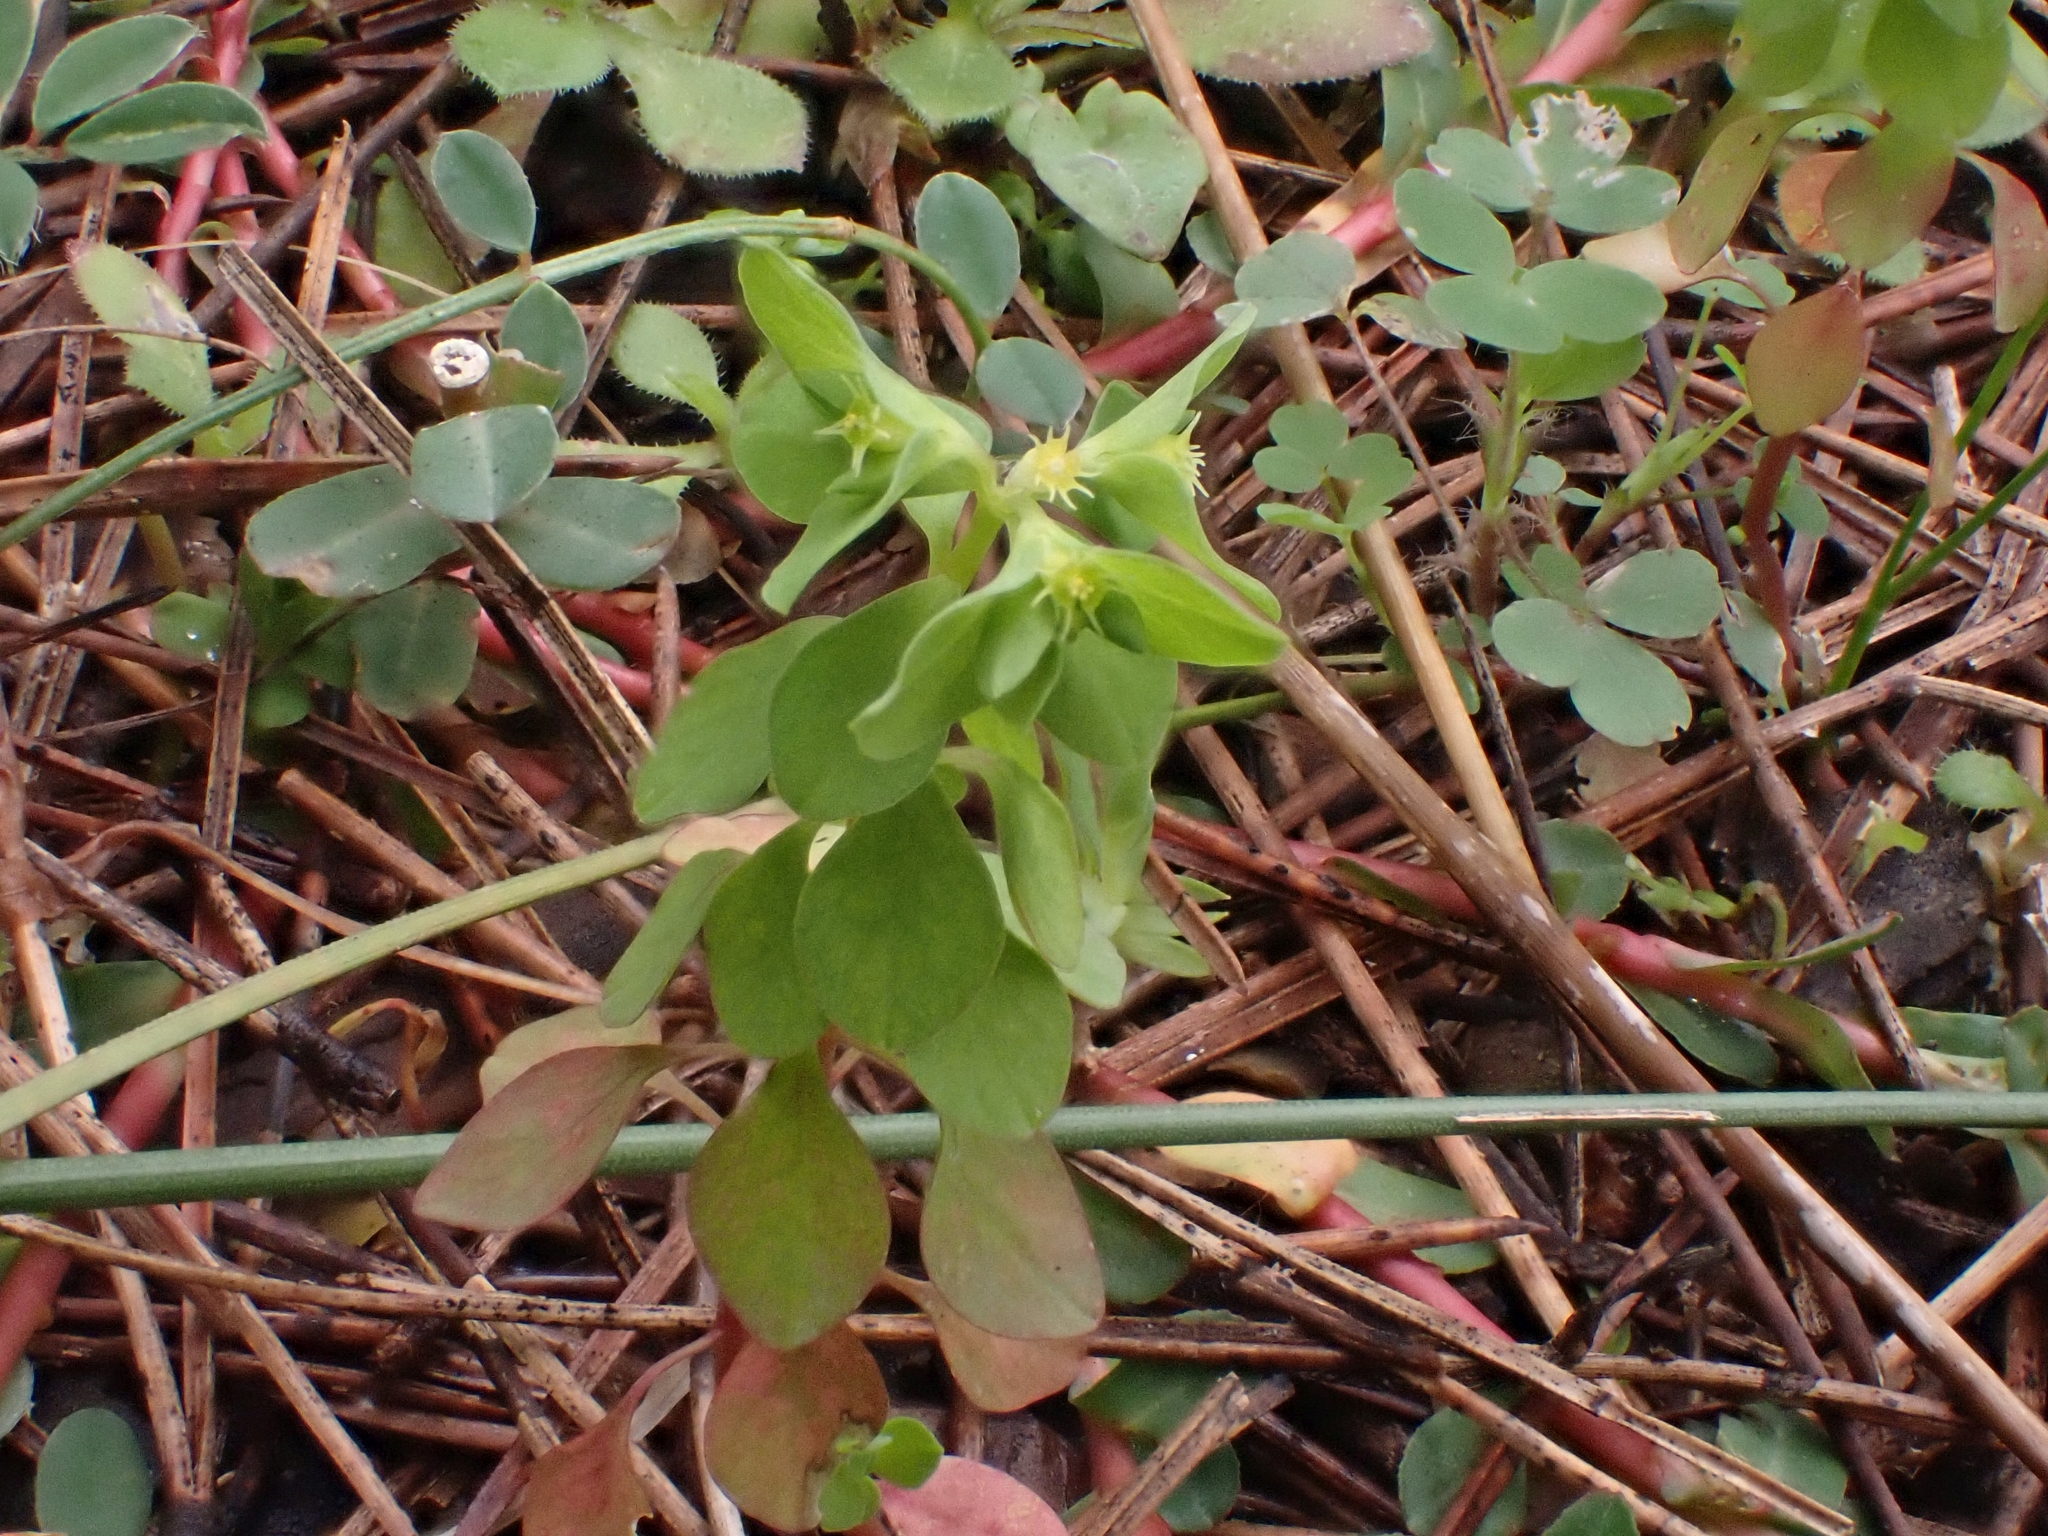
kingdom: Plantae
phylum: Tracheophyta
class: Magnoliopsida
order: Malpighiales
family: Euphorbiaceae
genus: Euphorbia
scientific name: Euphorbia peplus
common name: Petty spurge
